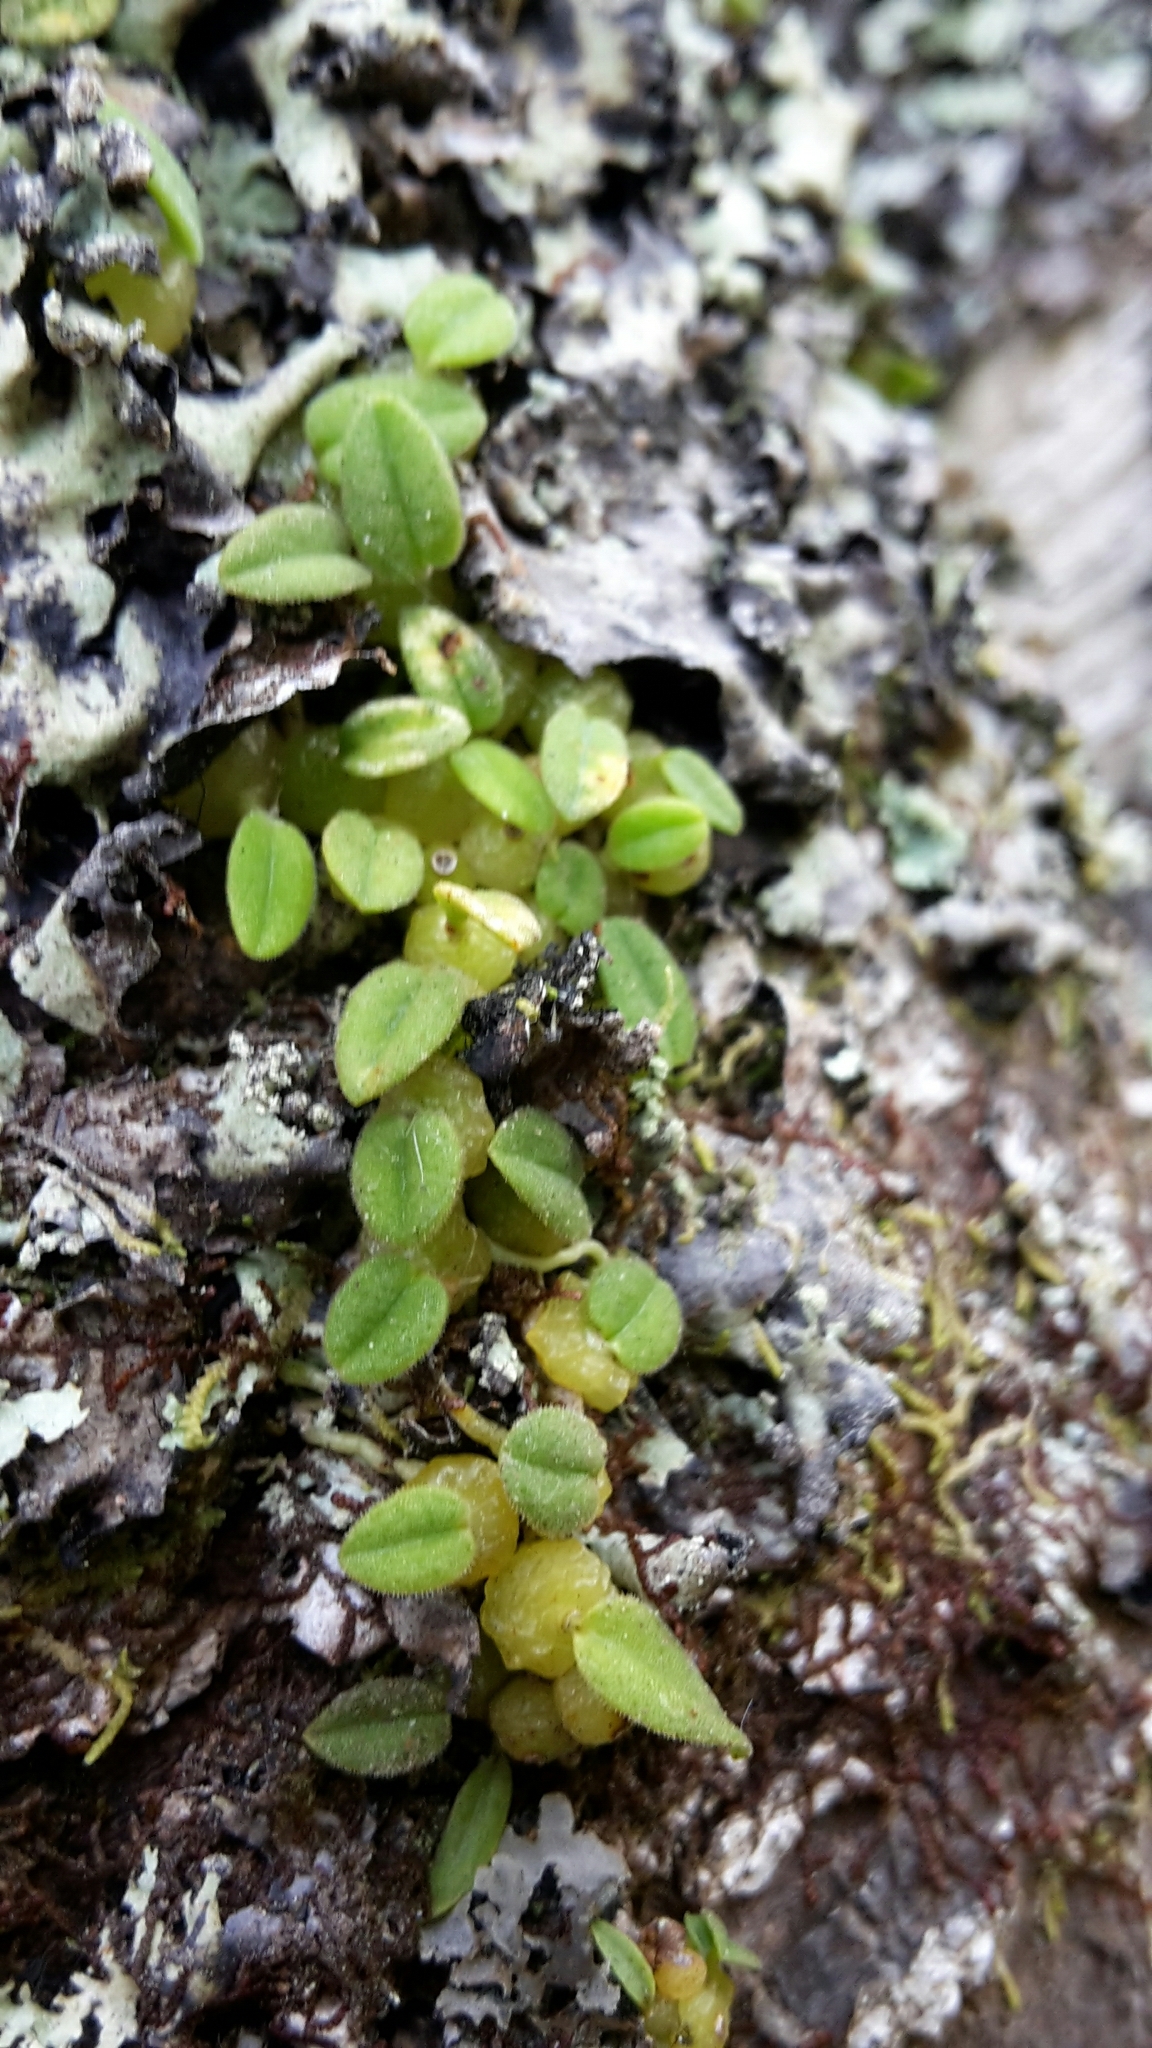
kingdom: Plantae
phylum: Tracheophyta
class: Liliopsida
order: Asparagales
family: Orchidaceae
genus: Bulbophyllum
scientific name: Bulbophyllum pygmaeum
